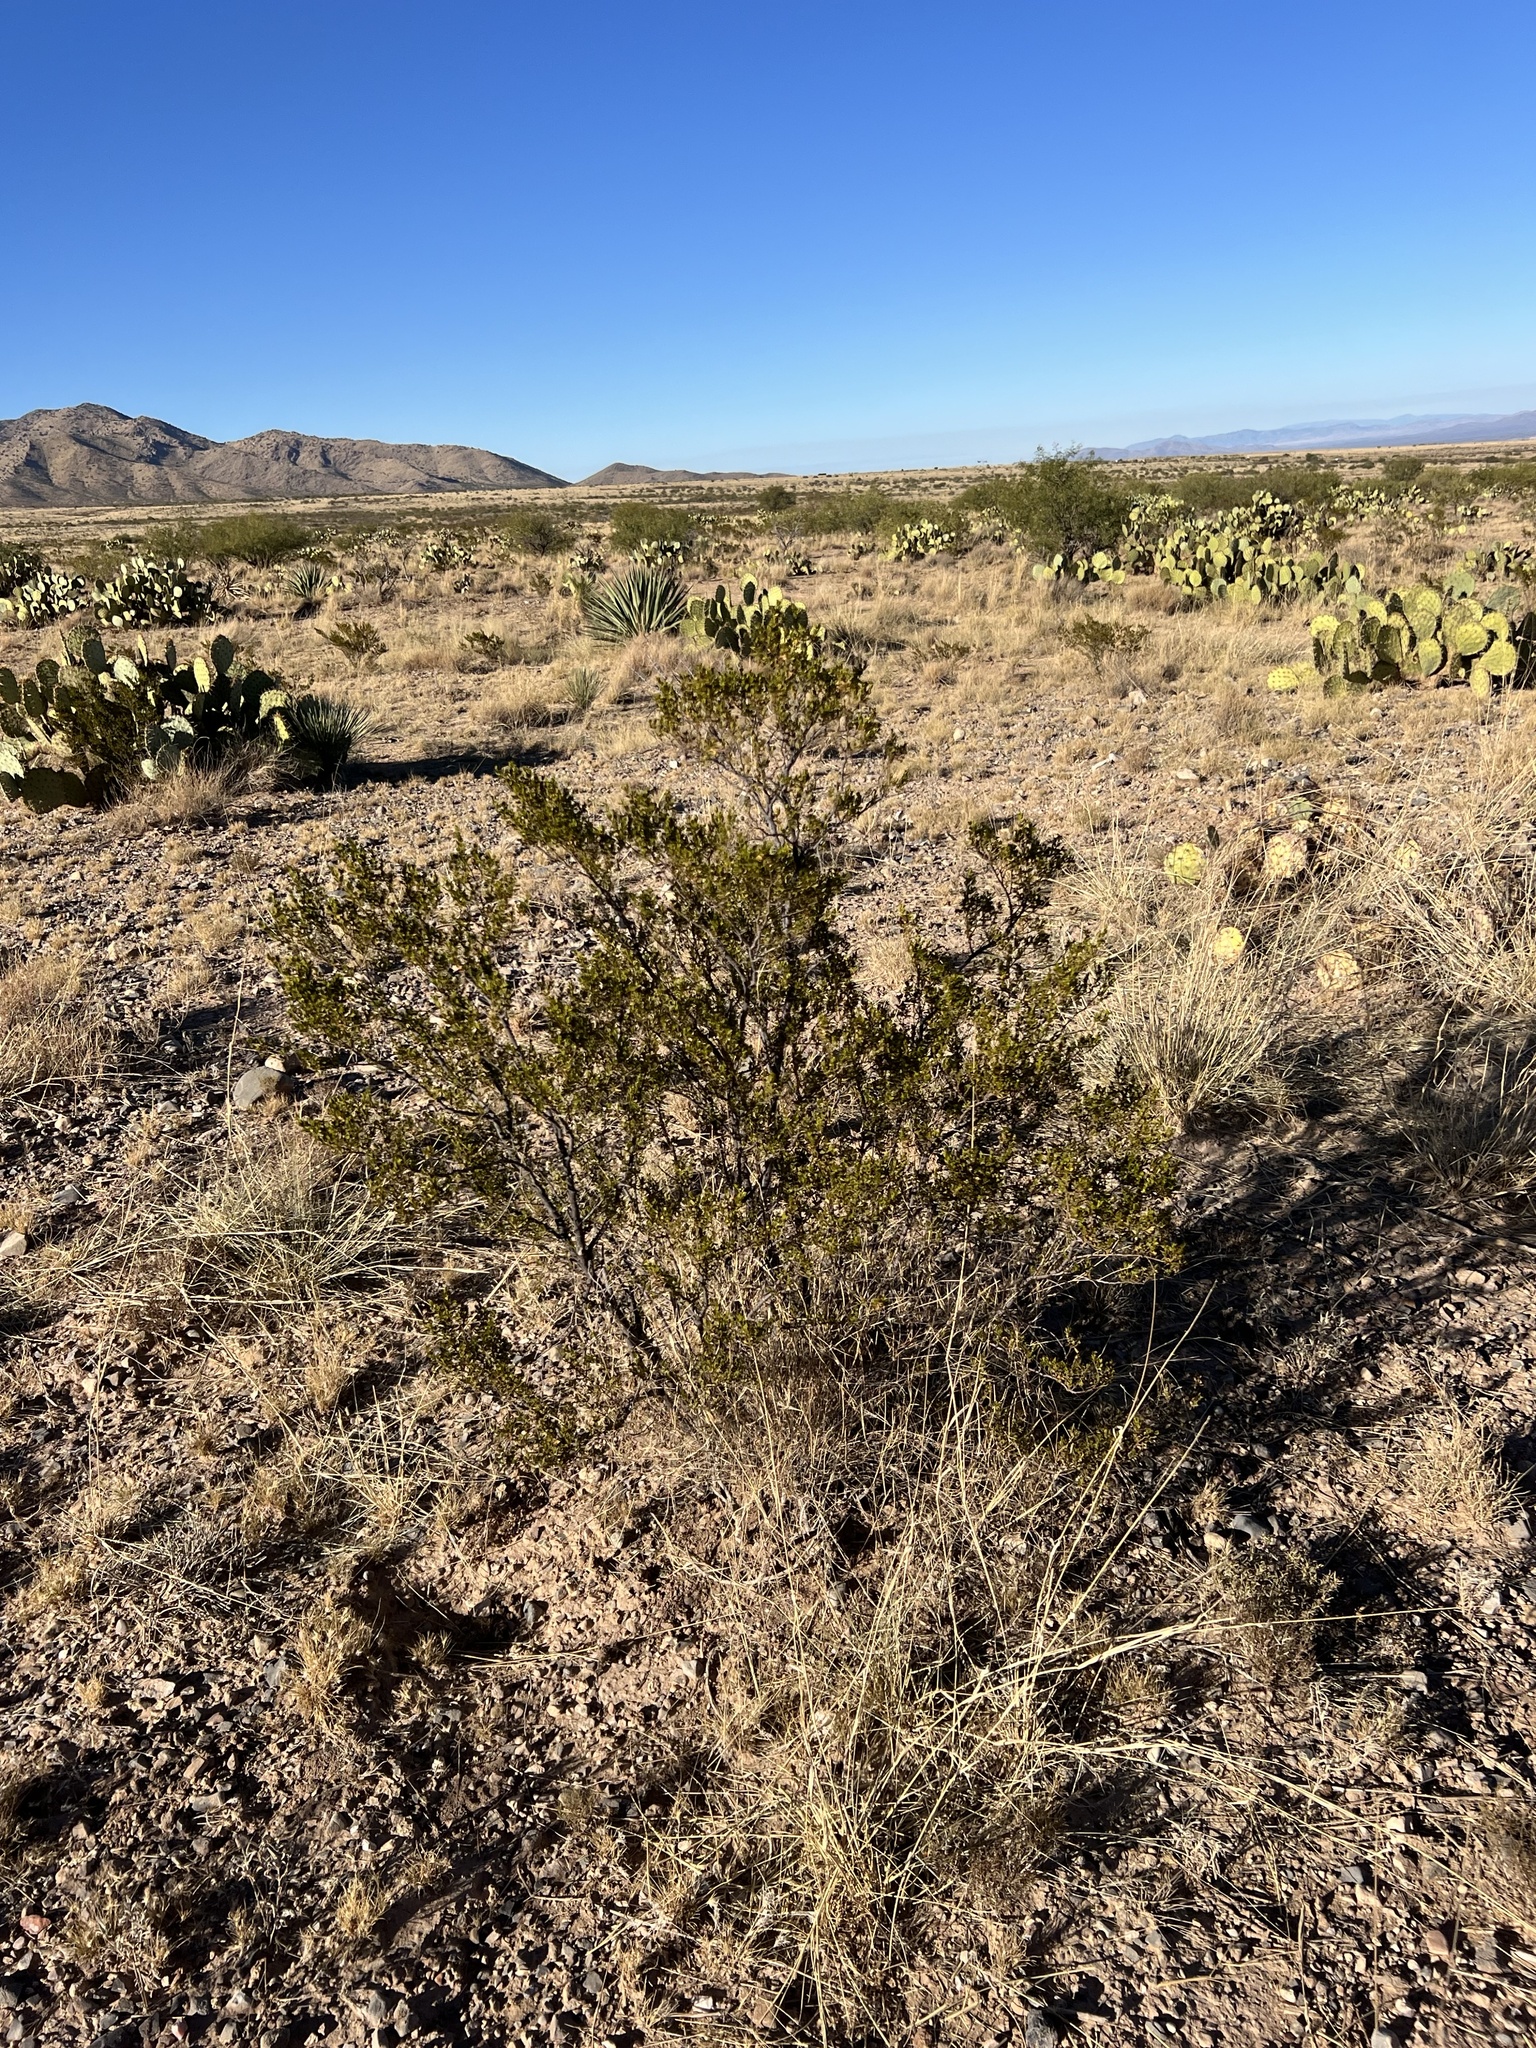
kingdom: Plantae
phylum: Tracheophyta
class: Magnoliopsida
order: Zygophyllales
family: Zygophyllaceae
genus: Larrea
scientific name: Larrea tridentata
